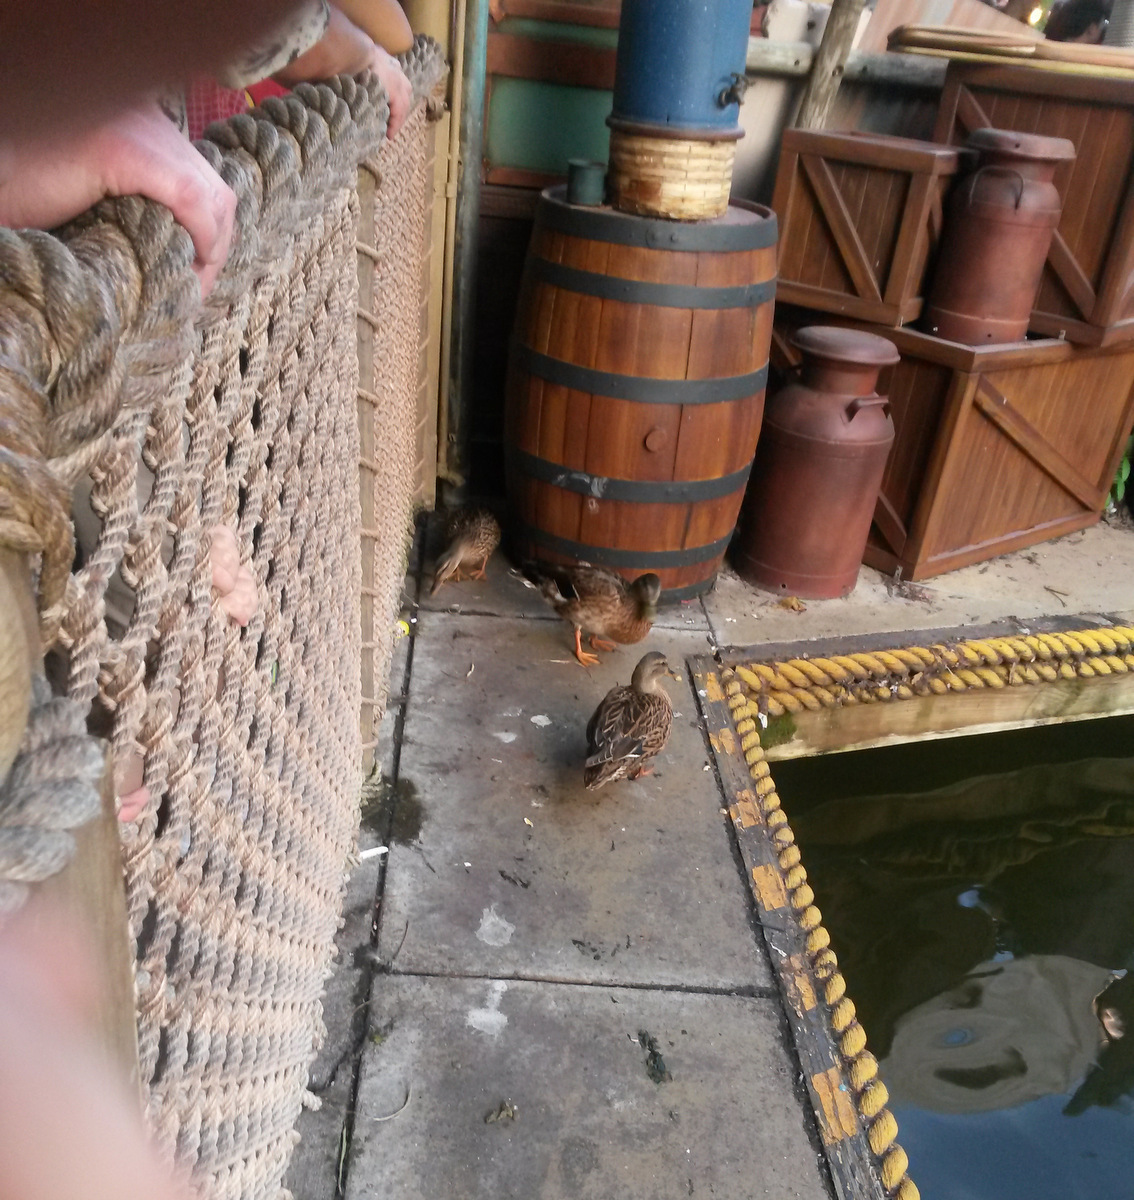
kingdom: Animalia
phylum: Chordata
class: Aves
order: Anseriformes
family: Anatidae
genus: Anas
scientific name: Anas platyrhynchos
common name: Mallard
